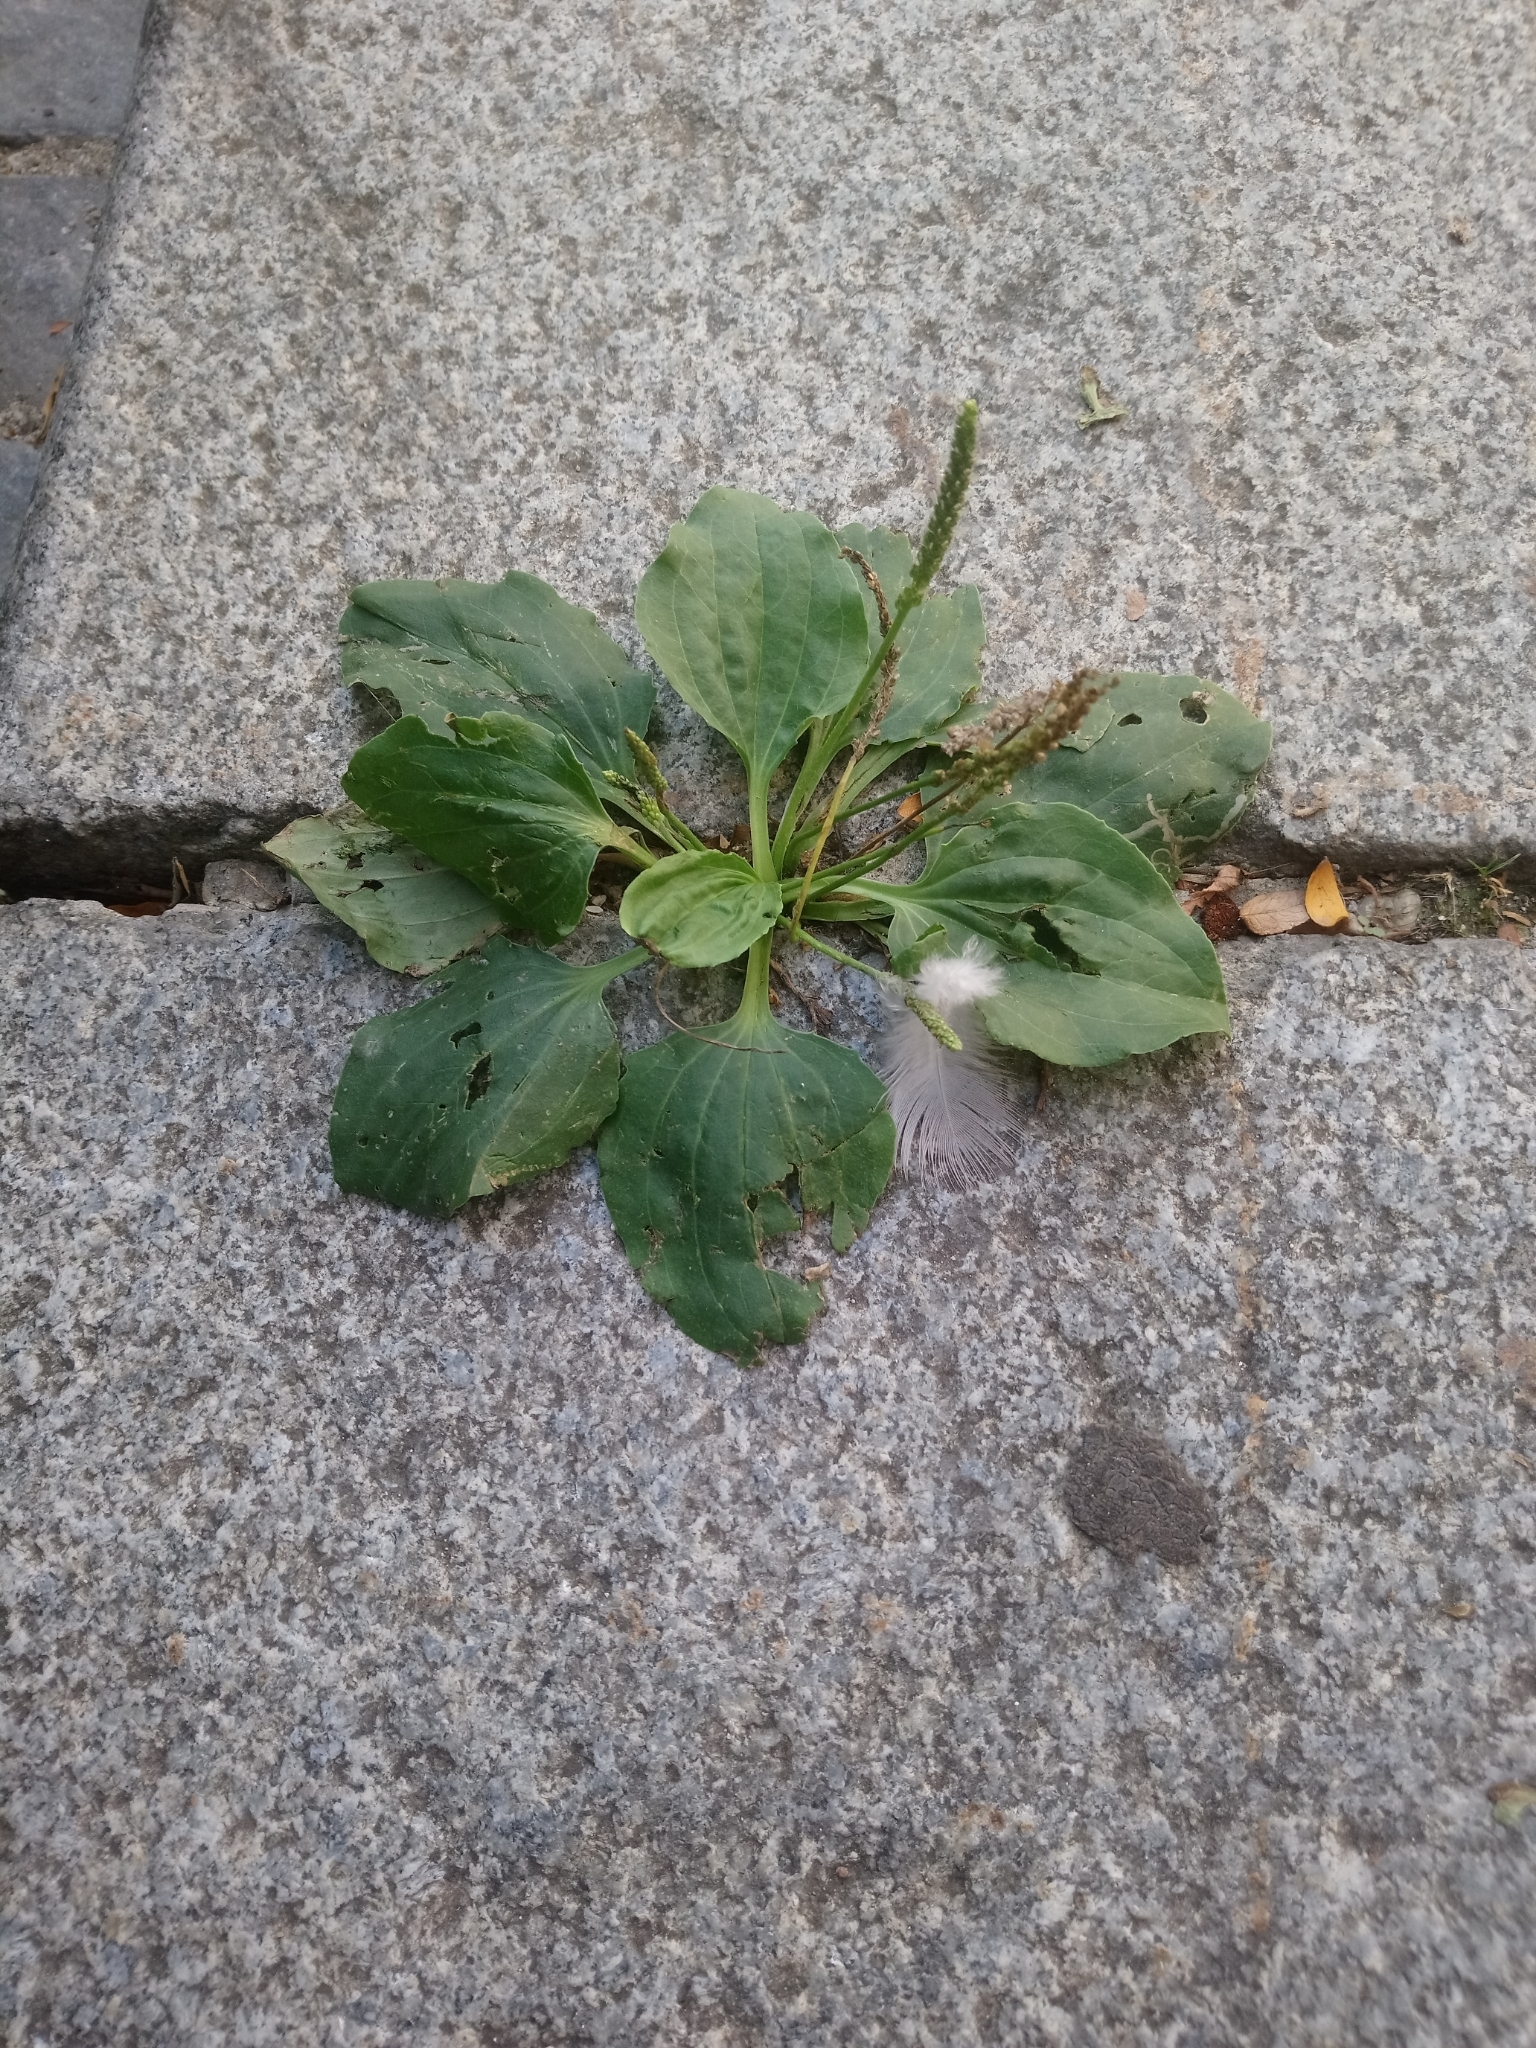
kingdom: Plantae
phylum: Tracheophyta
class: Magnoliopsida
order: Lamiales
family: Plantaginaceae
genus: Plantago
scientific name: Plantago major
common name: Common plantain
